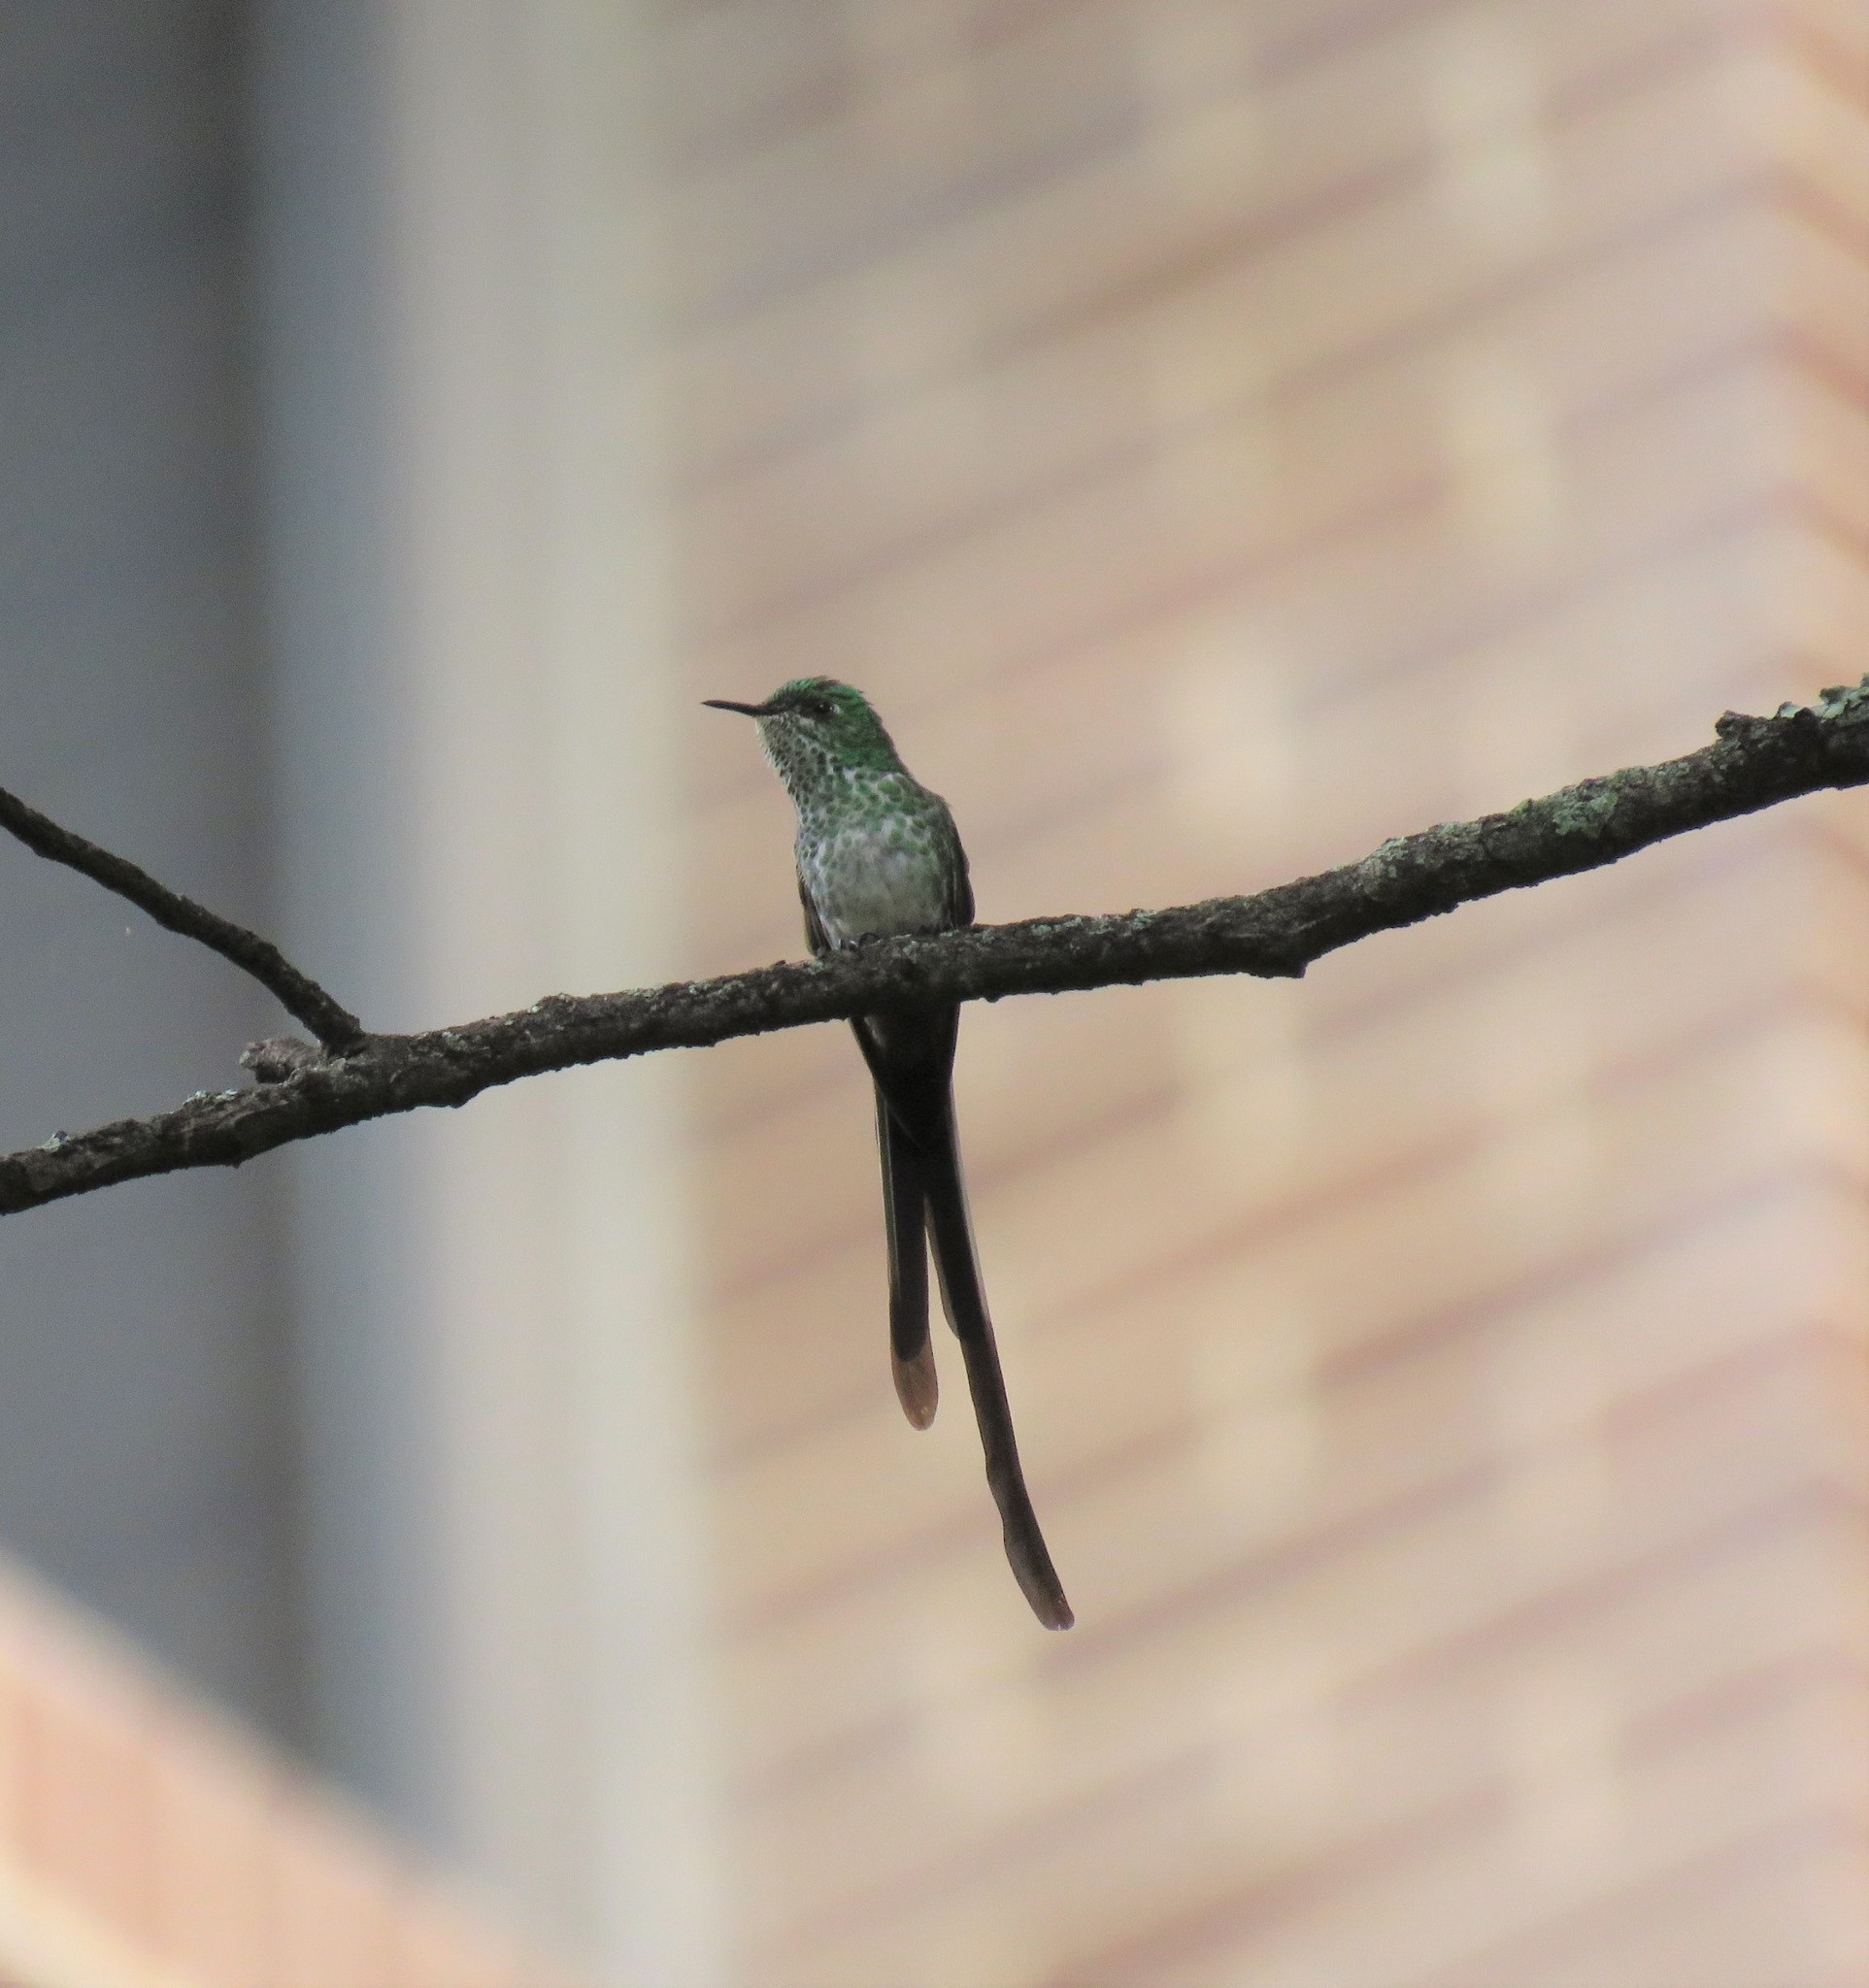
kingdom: Animalia
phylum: Chordata
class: Aves
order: Apodiformes
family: Trochilidae
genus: Lesbia
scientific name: Lesbia nuna
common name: Green-tailed trainbearer
